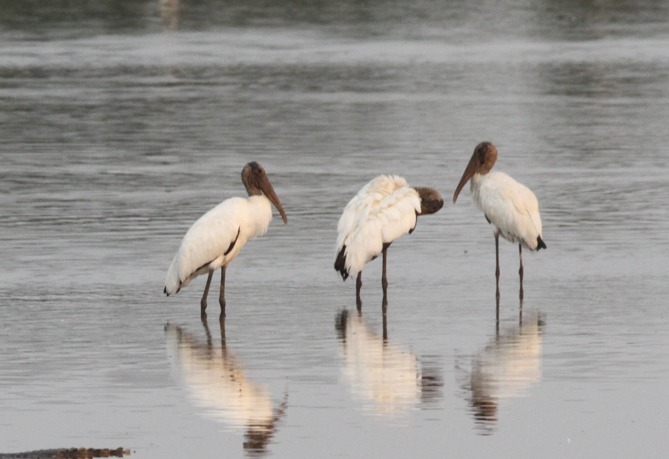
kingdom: Animalia
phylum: Chordata
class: Aves
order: Ciconiiformes
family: Ciconiidae
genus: Mycteria
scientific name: Mycteria americana
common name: Wood stork
